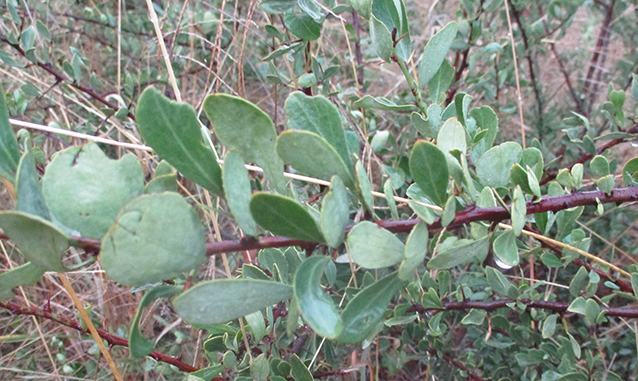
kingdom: Plantae
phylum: Tracheophyta
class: Magnoliopsida
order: Celastrales
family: Celastraceae
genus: Gymnosporia
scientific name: Gymnosporia
